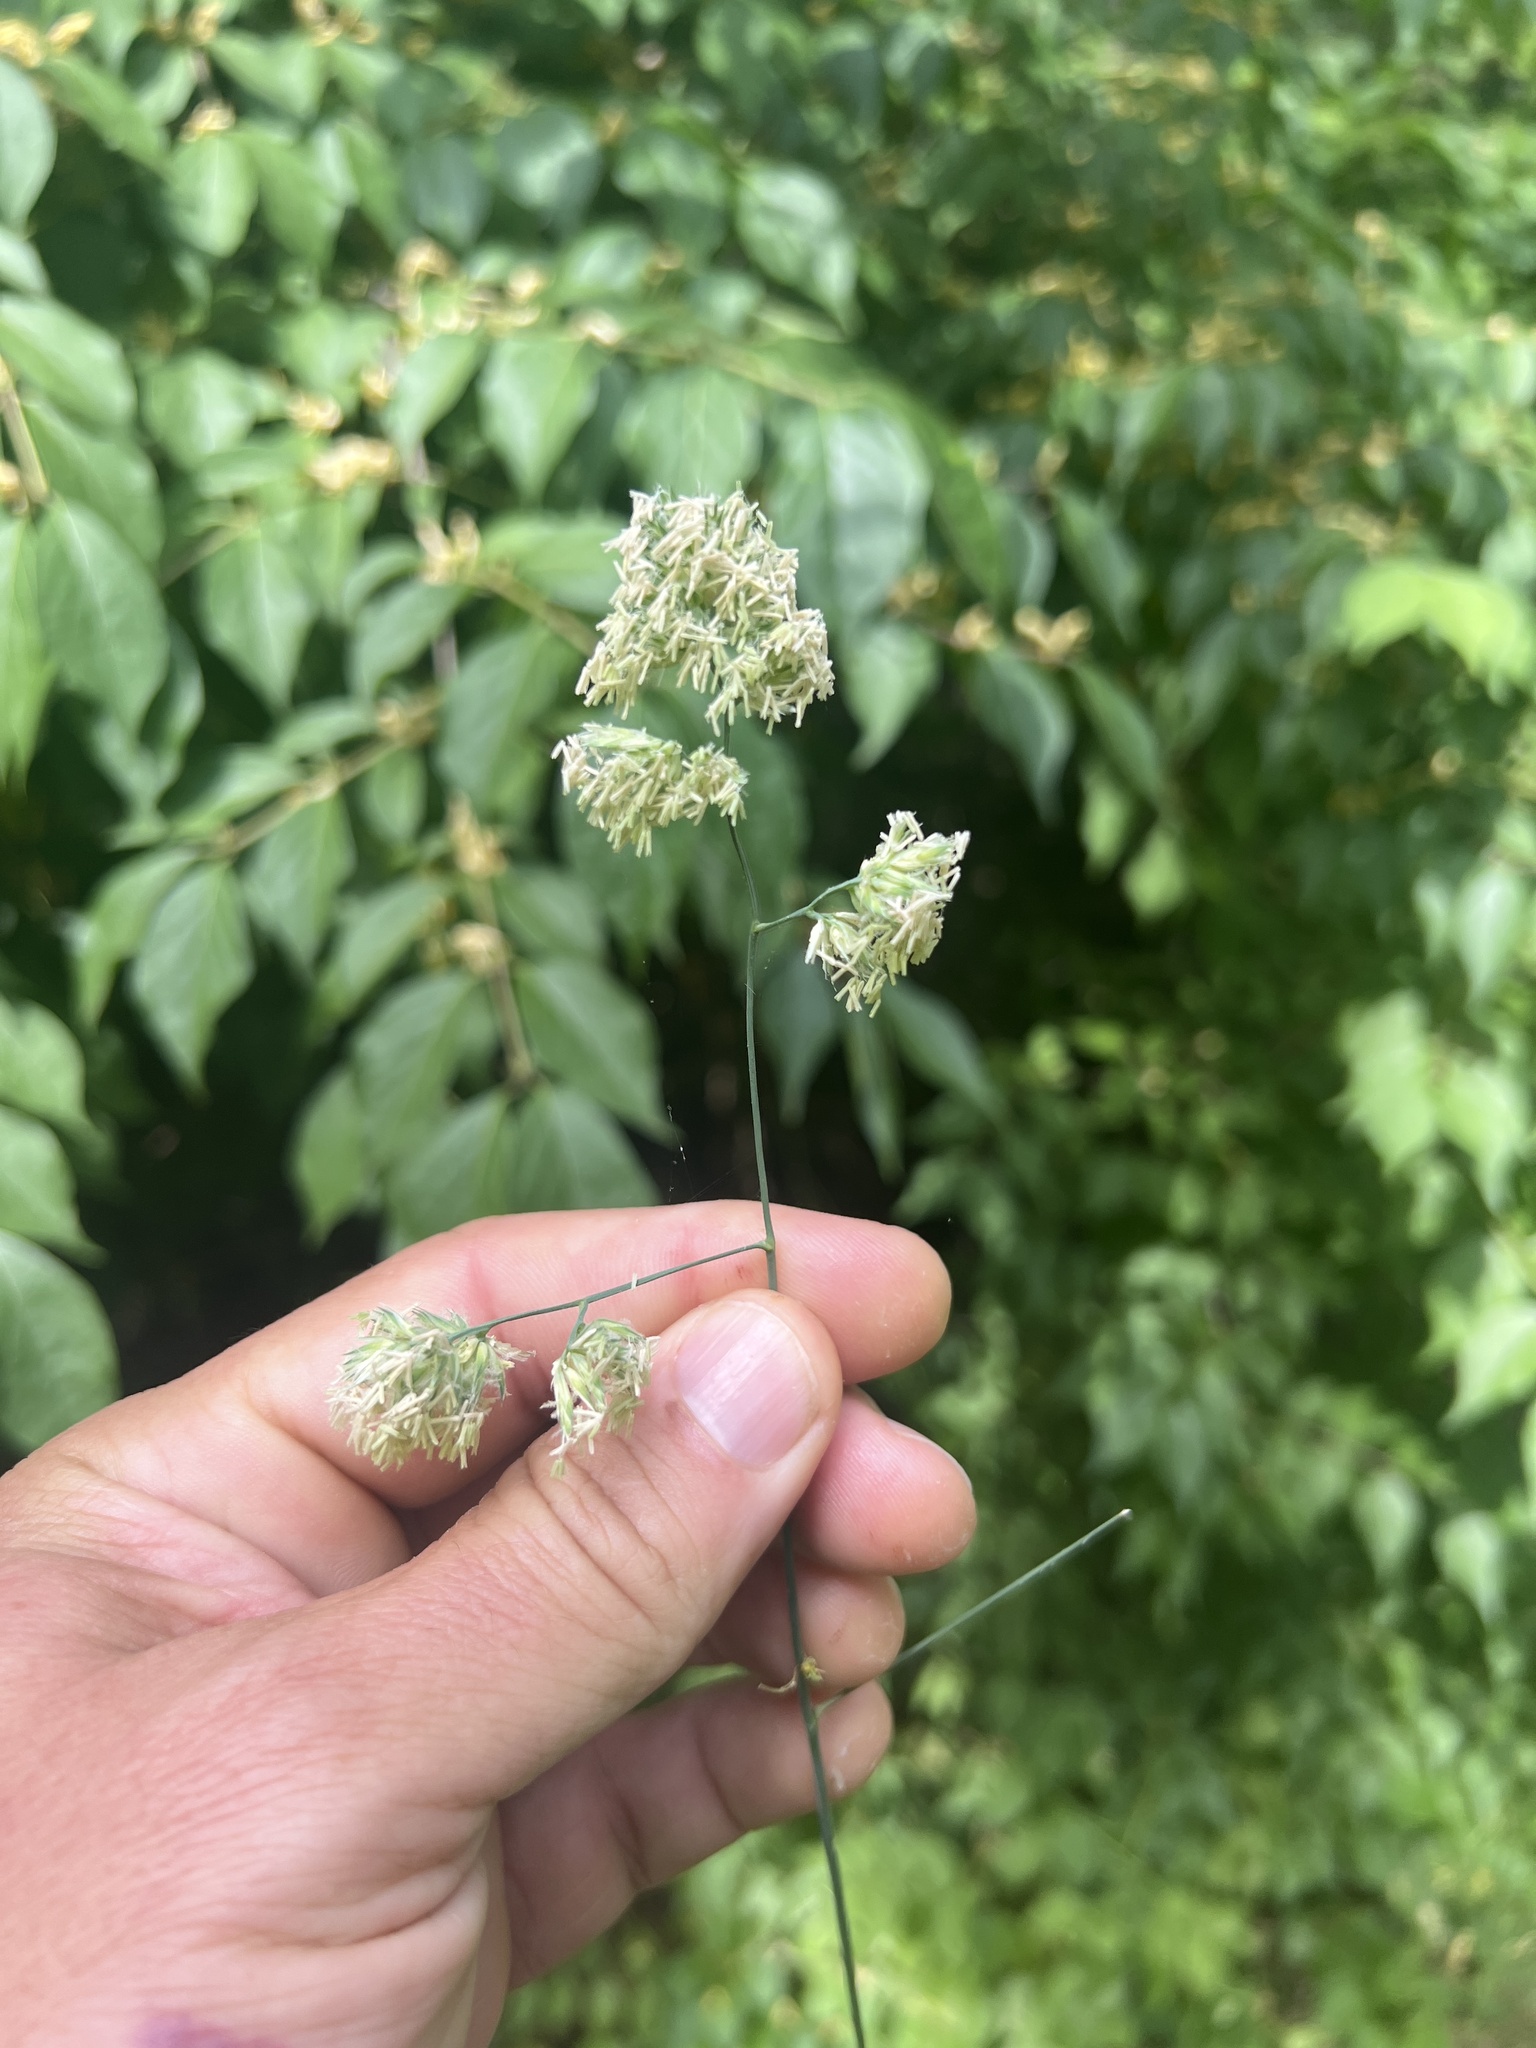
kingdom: Plantae
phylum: Tracheophyta
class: Liliopsida
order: Poales
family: Poaceae
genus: Dactylis
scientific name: Dactylis glomerata
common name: Orchardgrass
